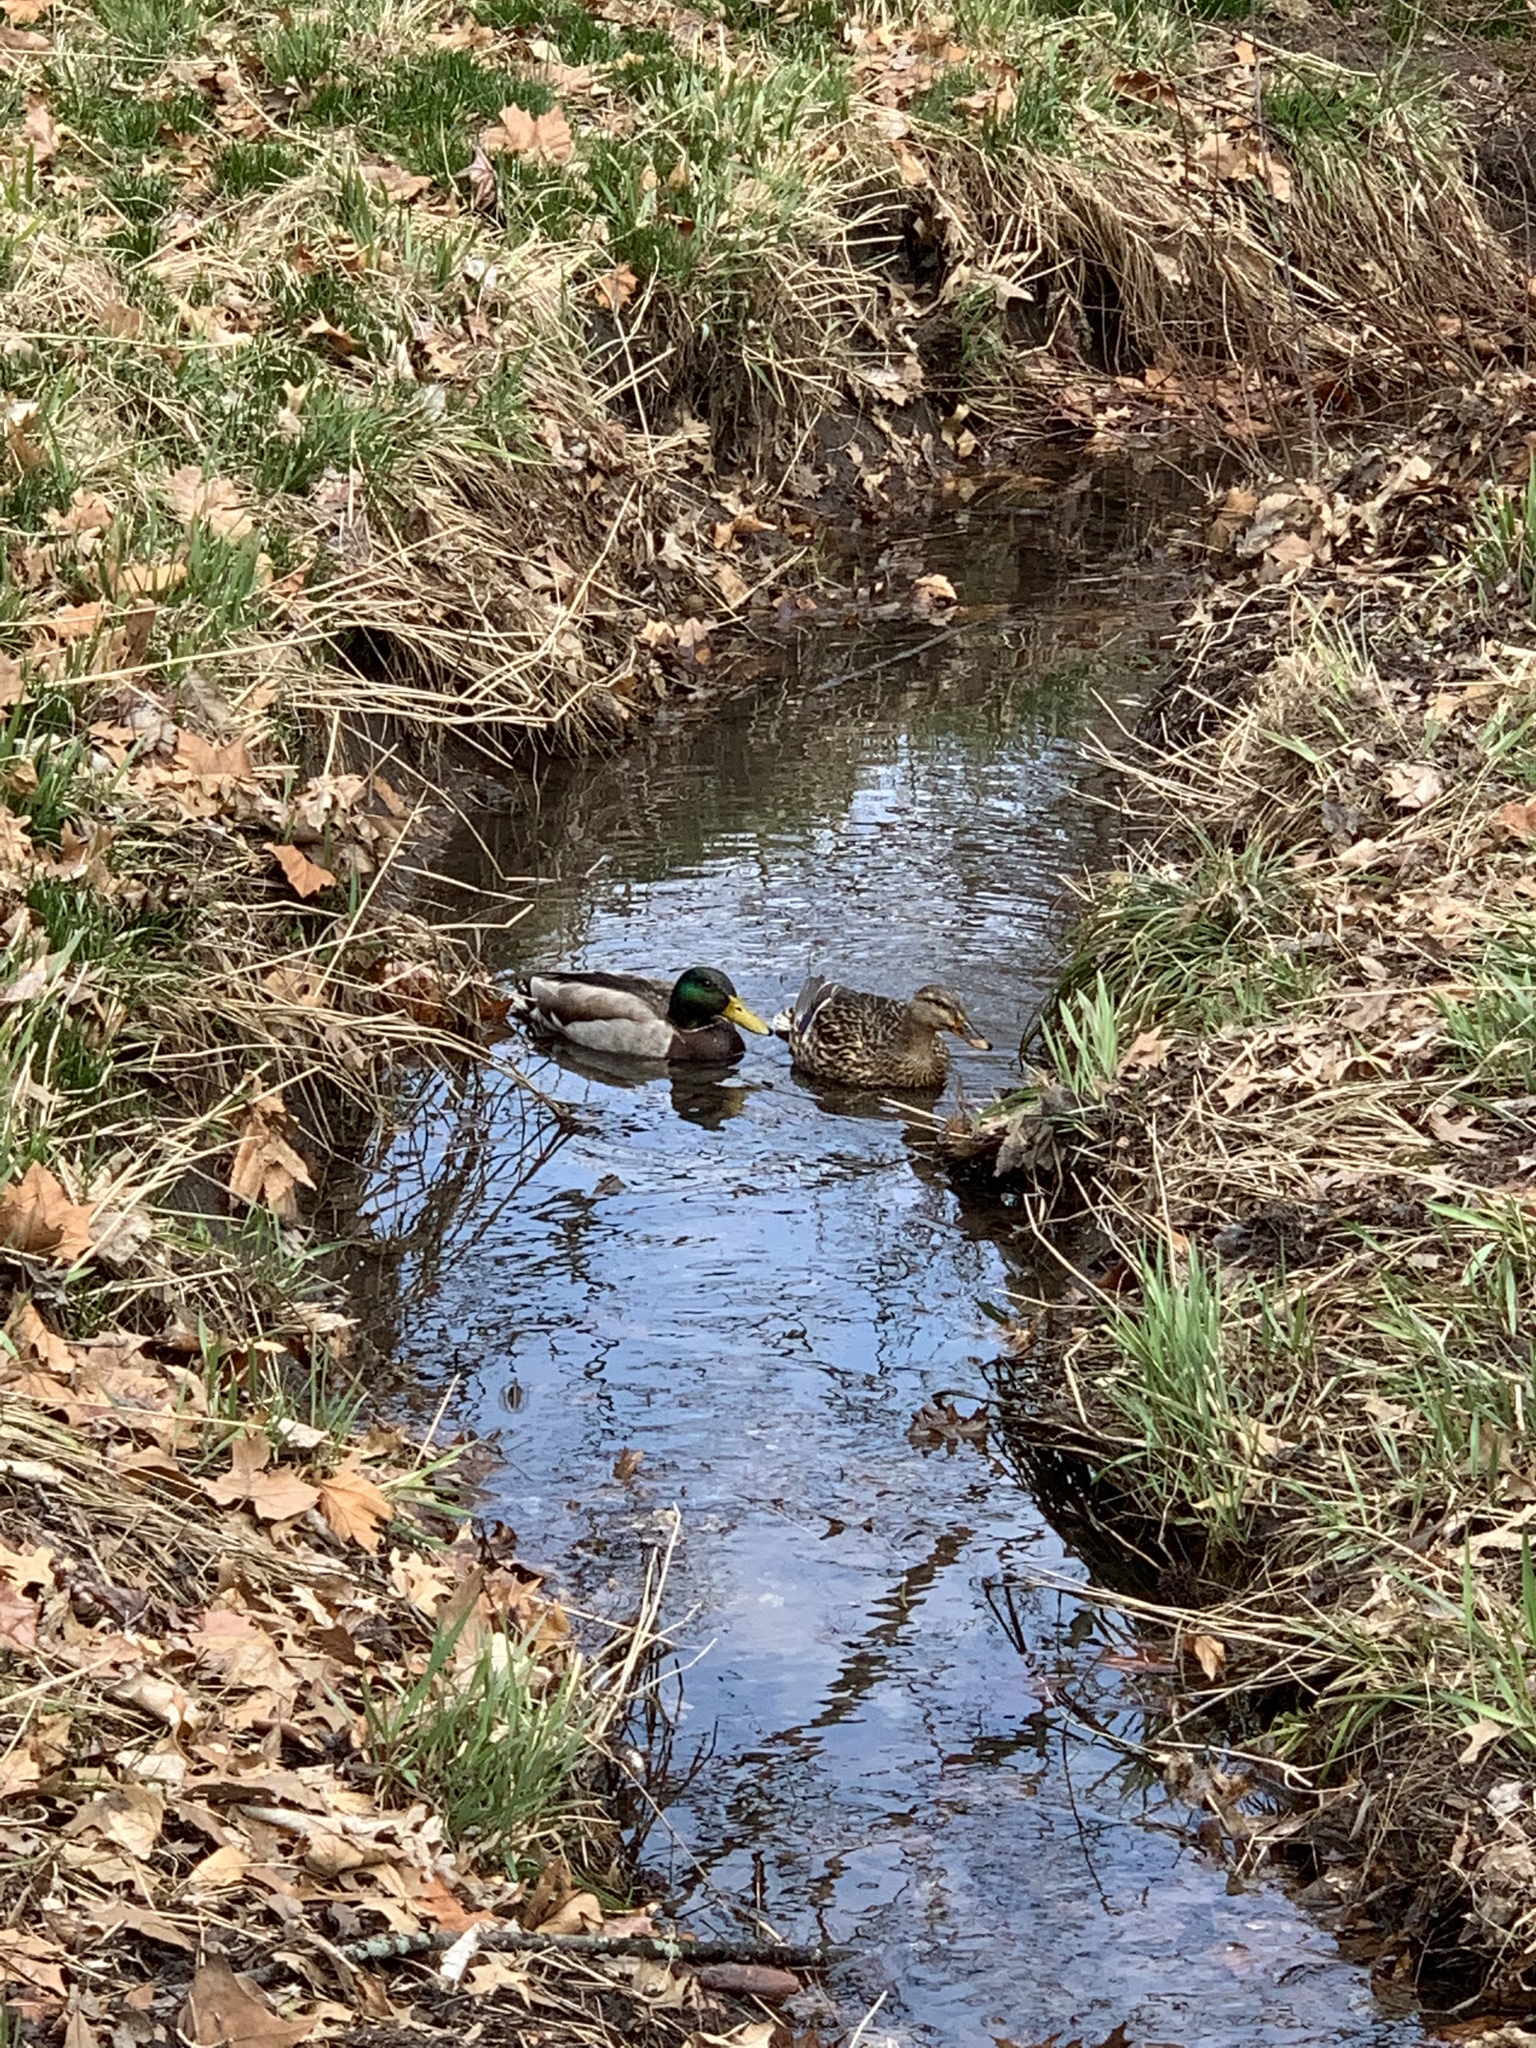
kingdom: Animalia
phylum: Chordata
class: Aves
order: Anseriformes
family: Anatidae
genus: Anas
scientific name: Anas platyrhynchos
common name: Mallard
